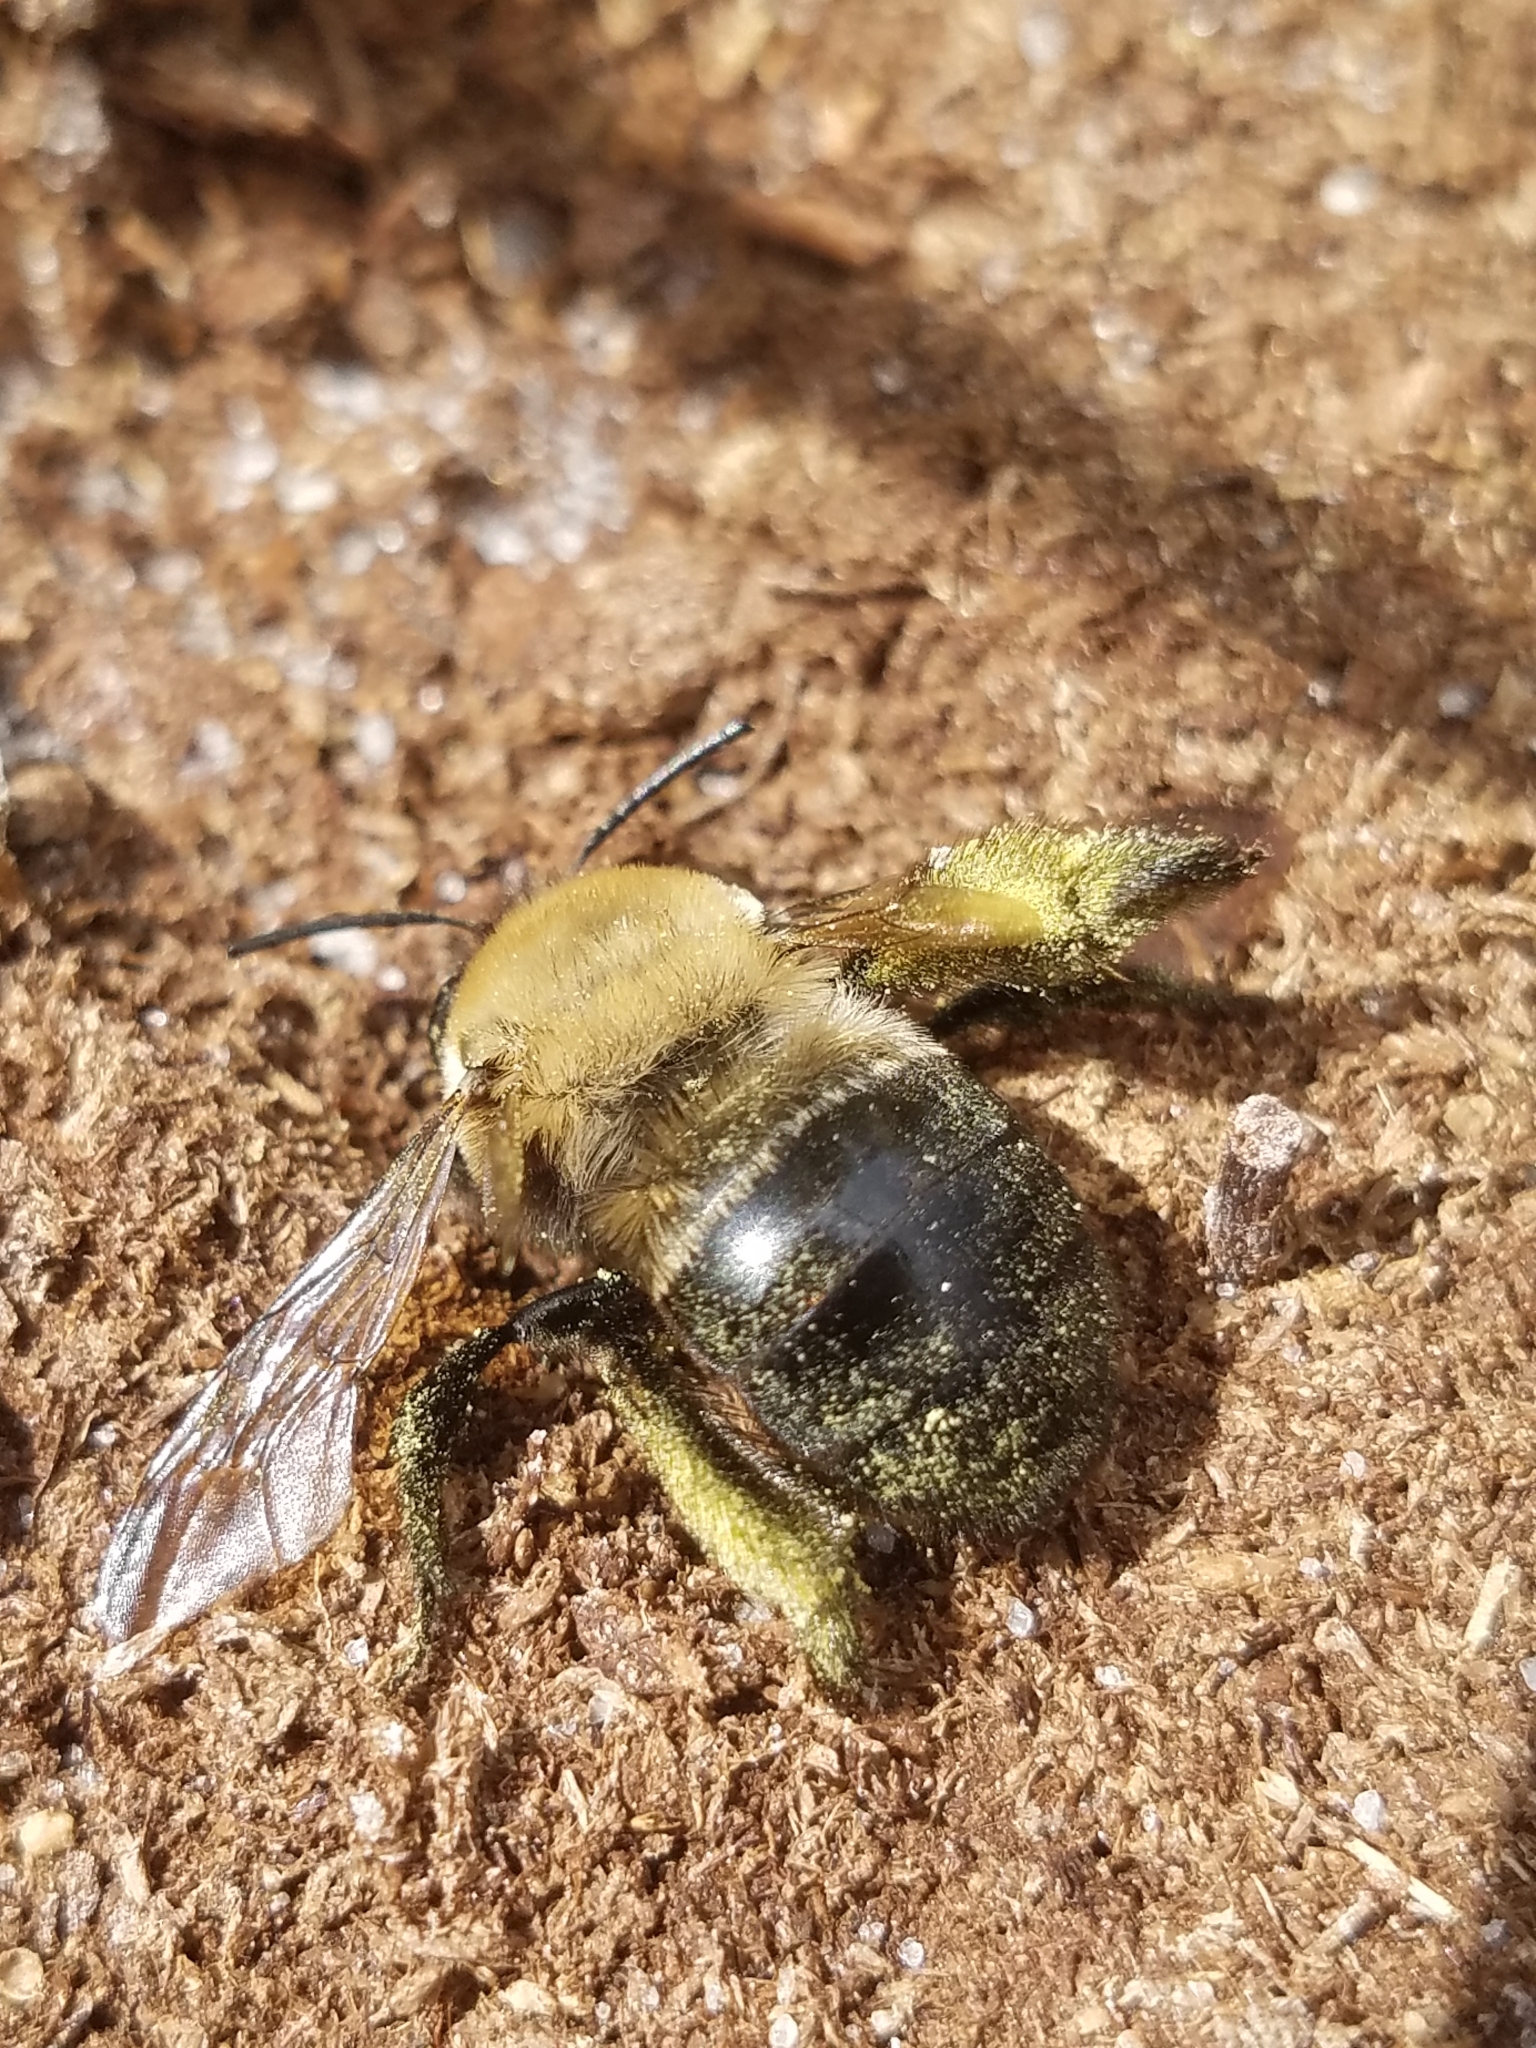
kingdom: Animalia
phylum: Arthropoda
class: Insecta
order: Hymenoptera
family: Apidae
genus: Habropoda
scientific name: Habropoda laboriosa
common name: Southeastern blueberry bee
